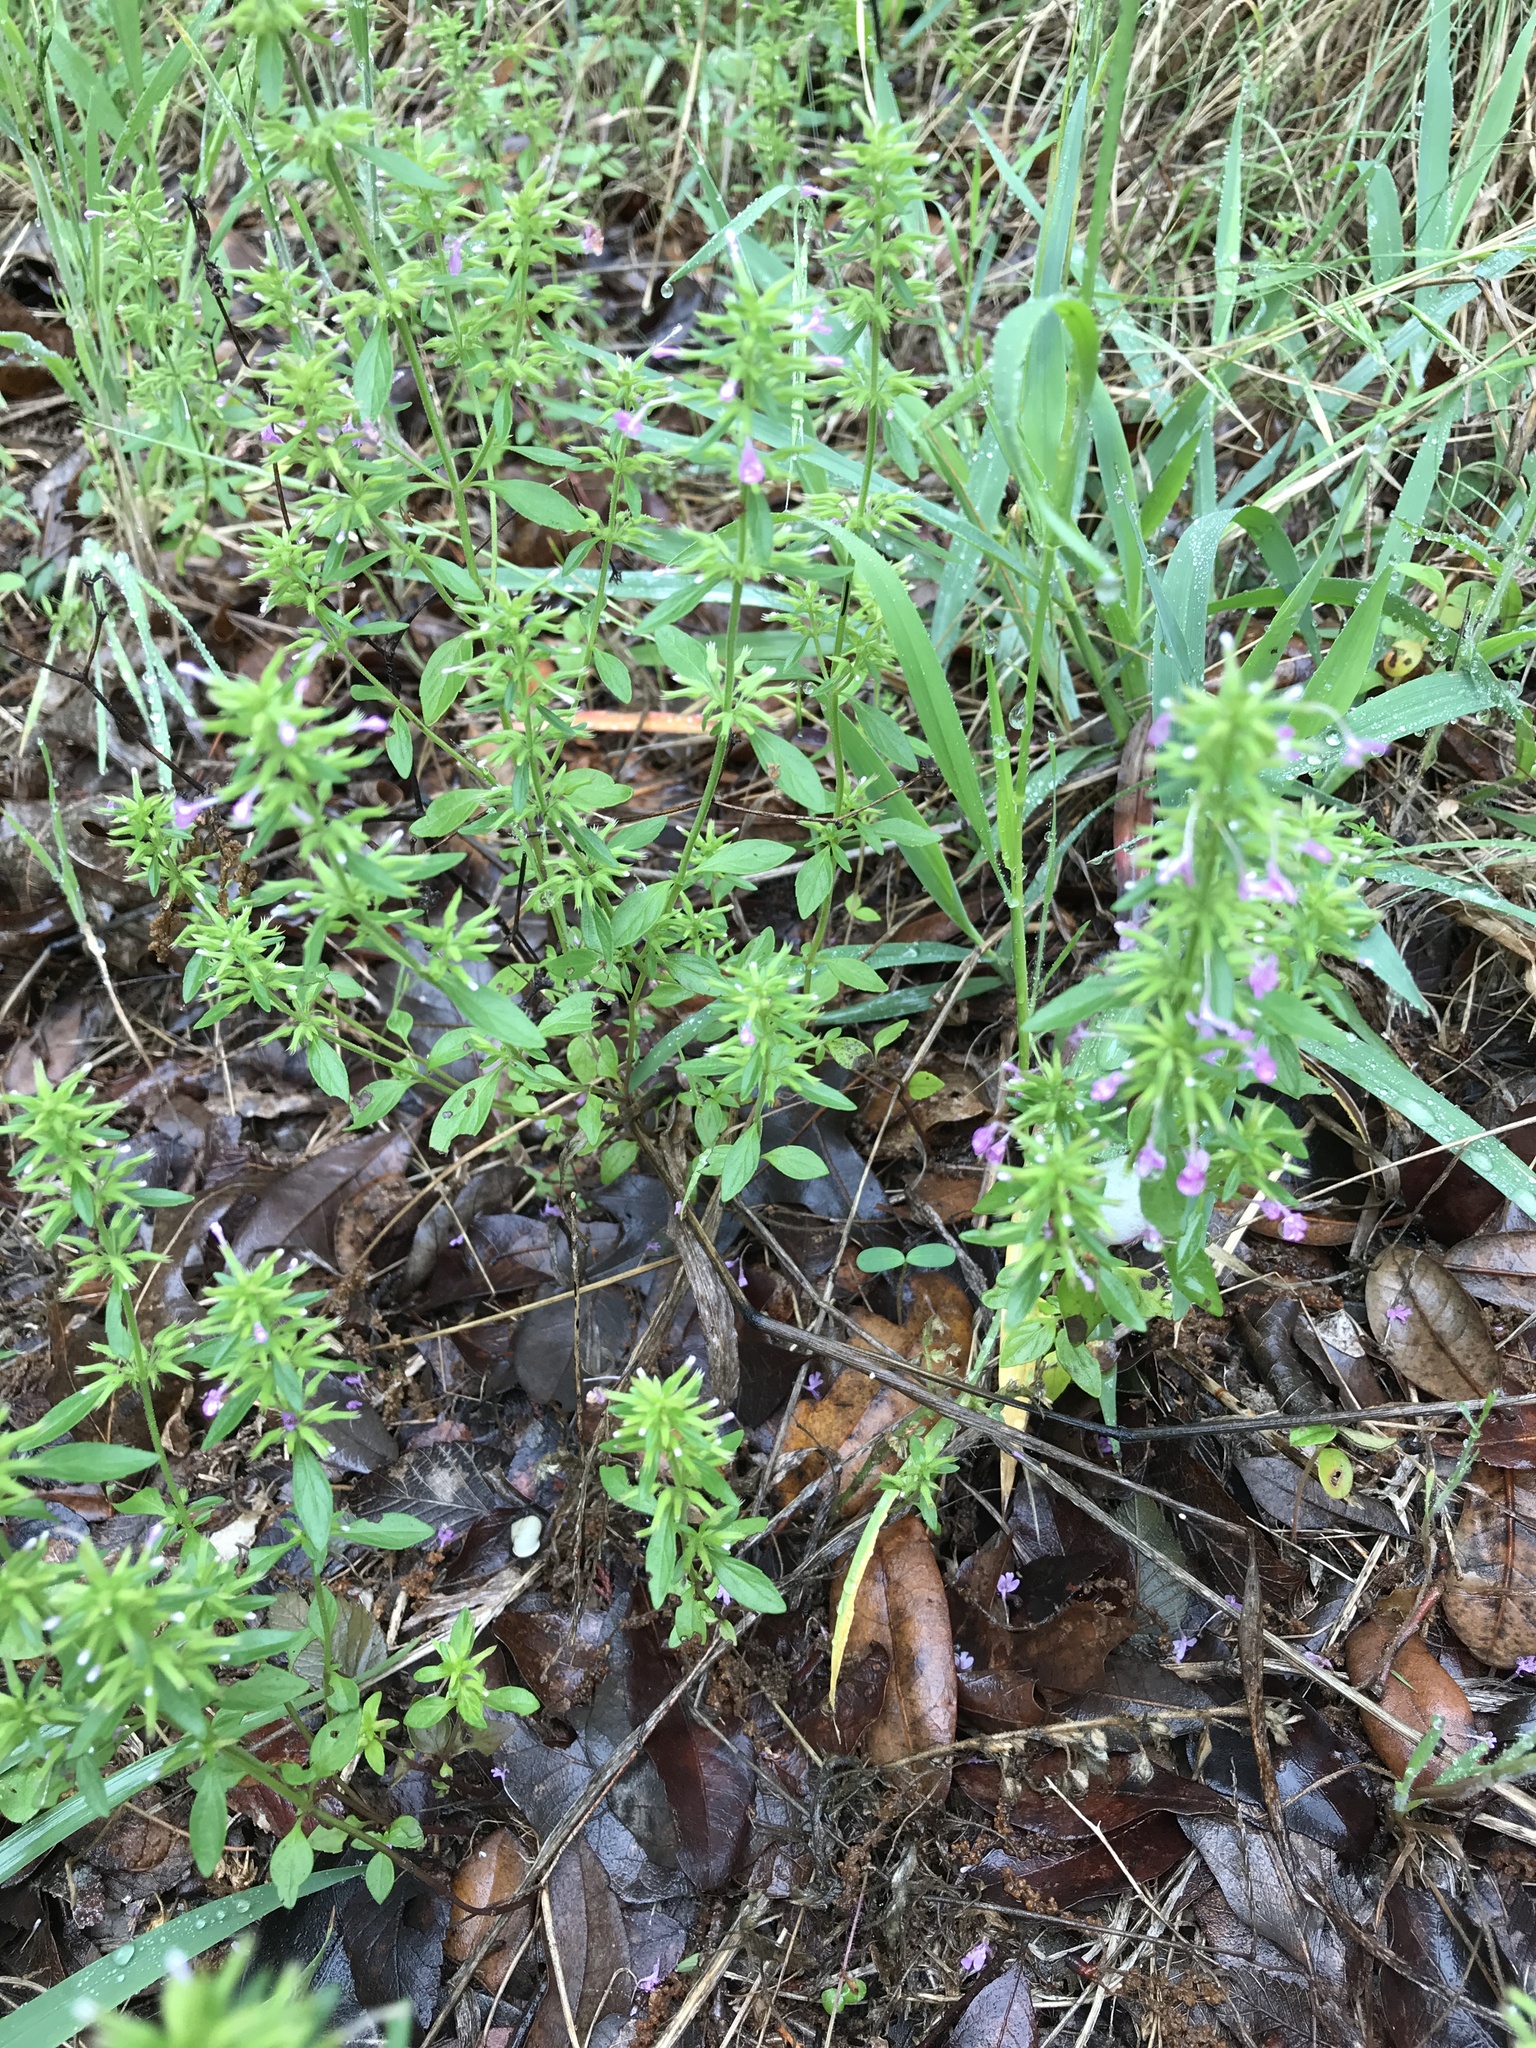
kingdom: Plantae
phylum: Tracheophyta
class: Magnoliopsida
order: Lamiales
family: Lamiaceae
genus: Hedeoma
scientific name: Hedeoma acinoides
